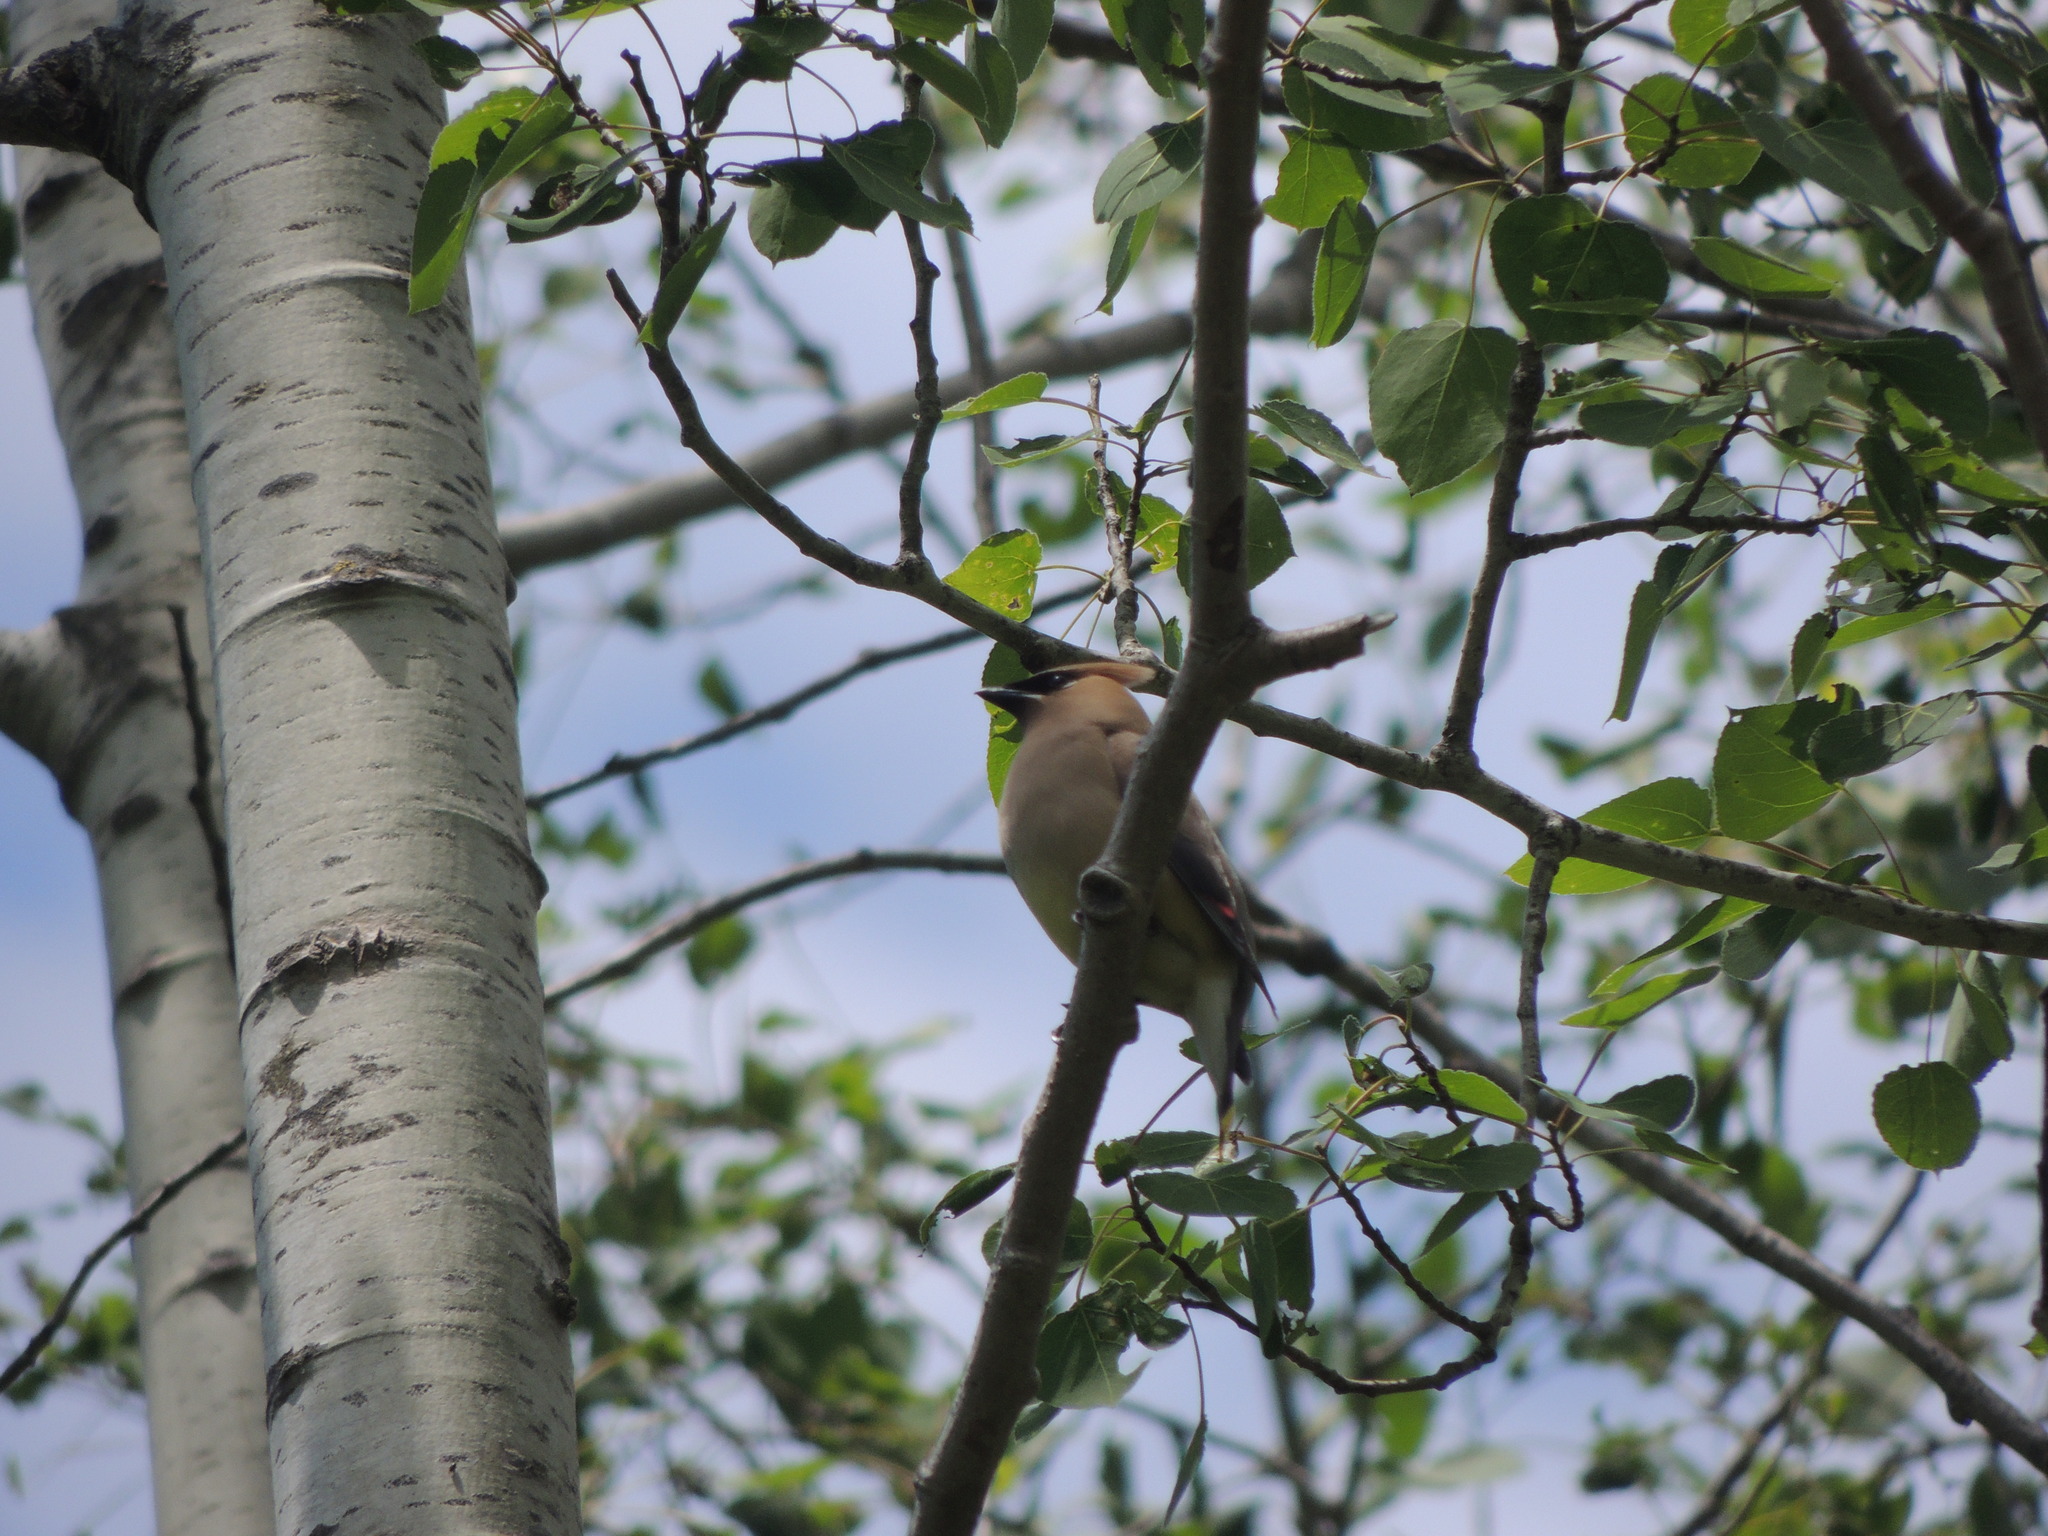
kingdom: Animalia
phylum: Chordata
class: Aves
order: Passeriformes
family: Bombycillidae
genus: Bombycilla
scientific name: Bombycilla cedrorum
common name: Cedar waxwing
